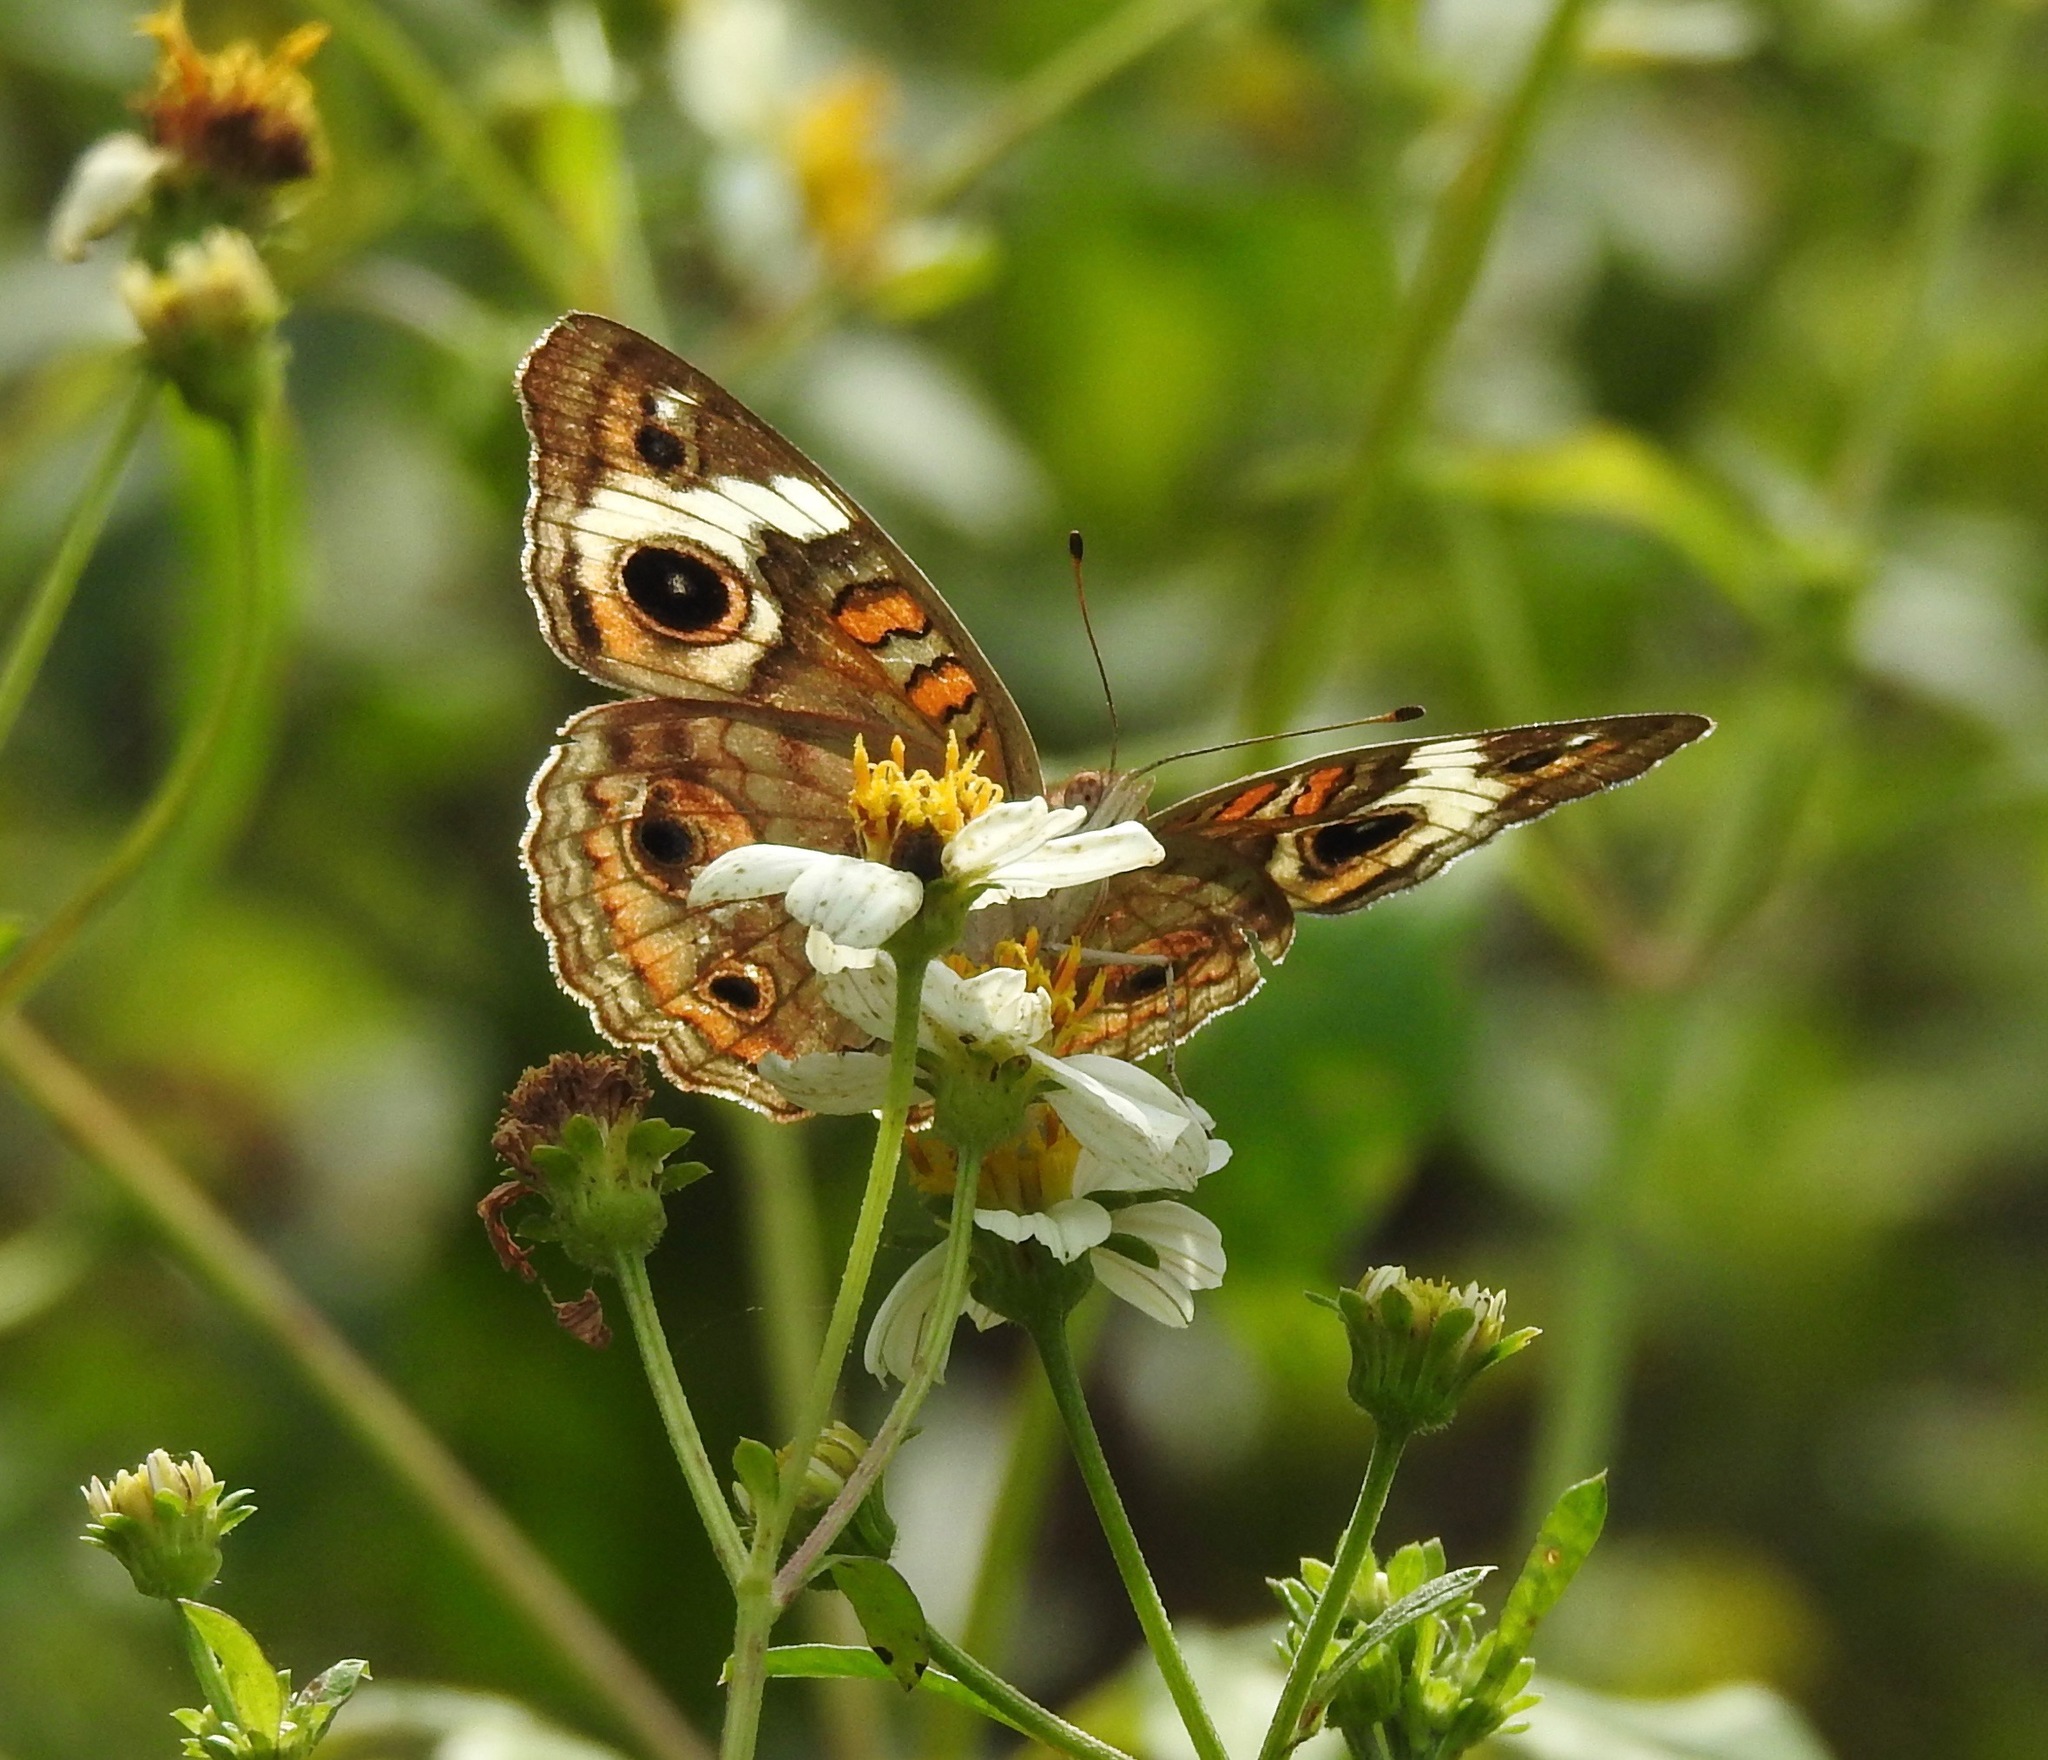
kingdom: Animalia
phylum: Arthropoda
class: Insecta
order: Lepidoptera
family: Nymphalidae
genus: Junonia
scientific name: Junonia coenia
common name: Common buckeye
